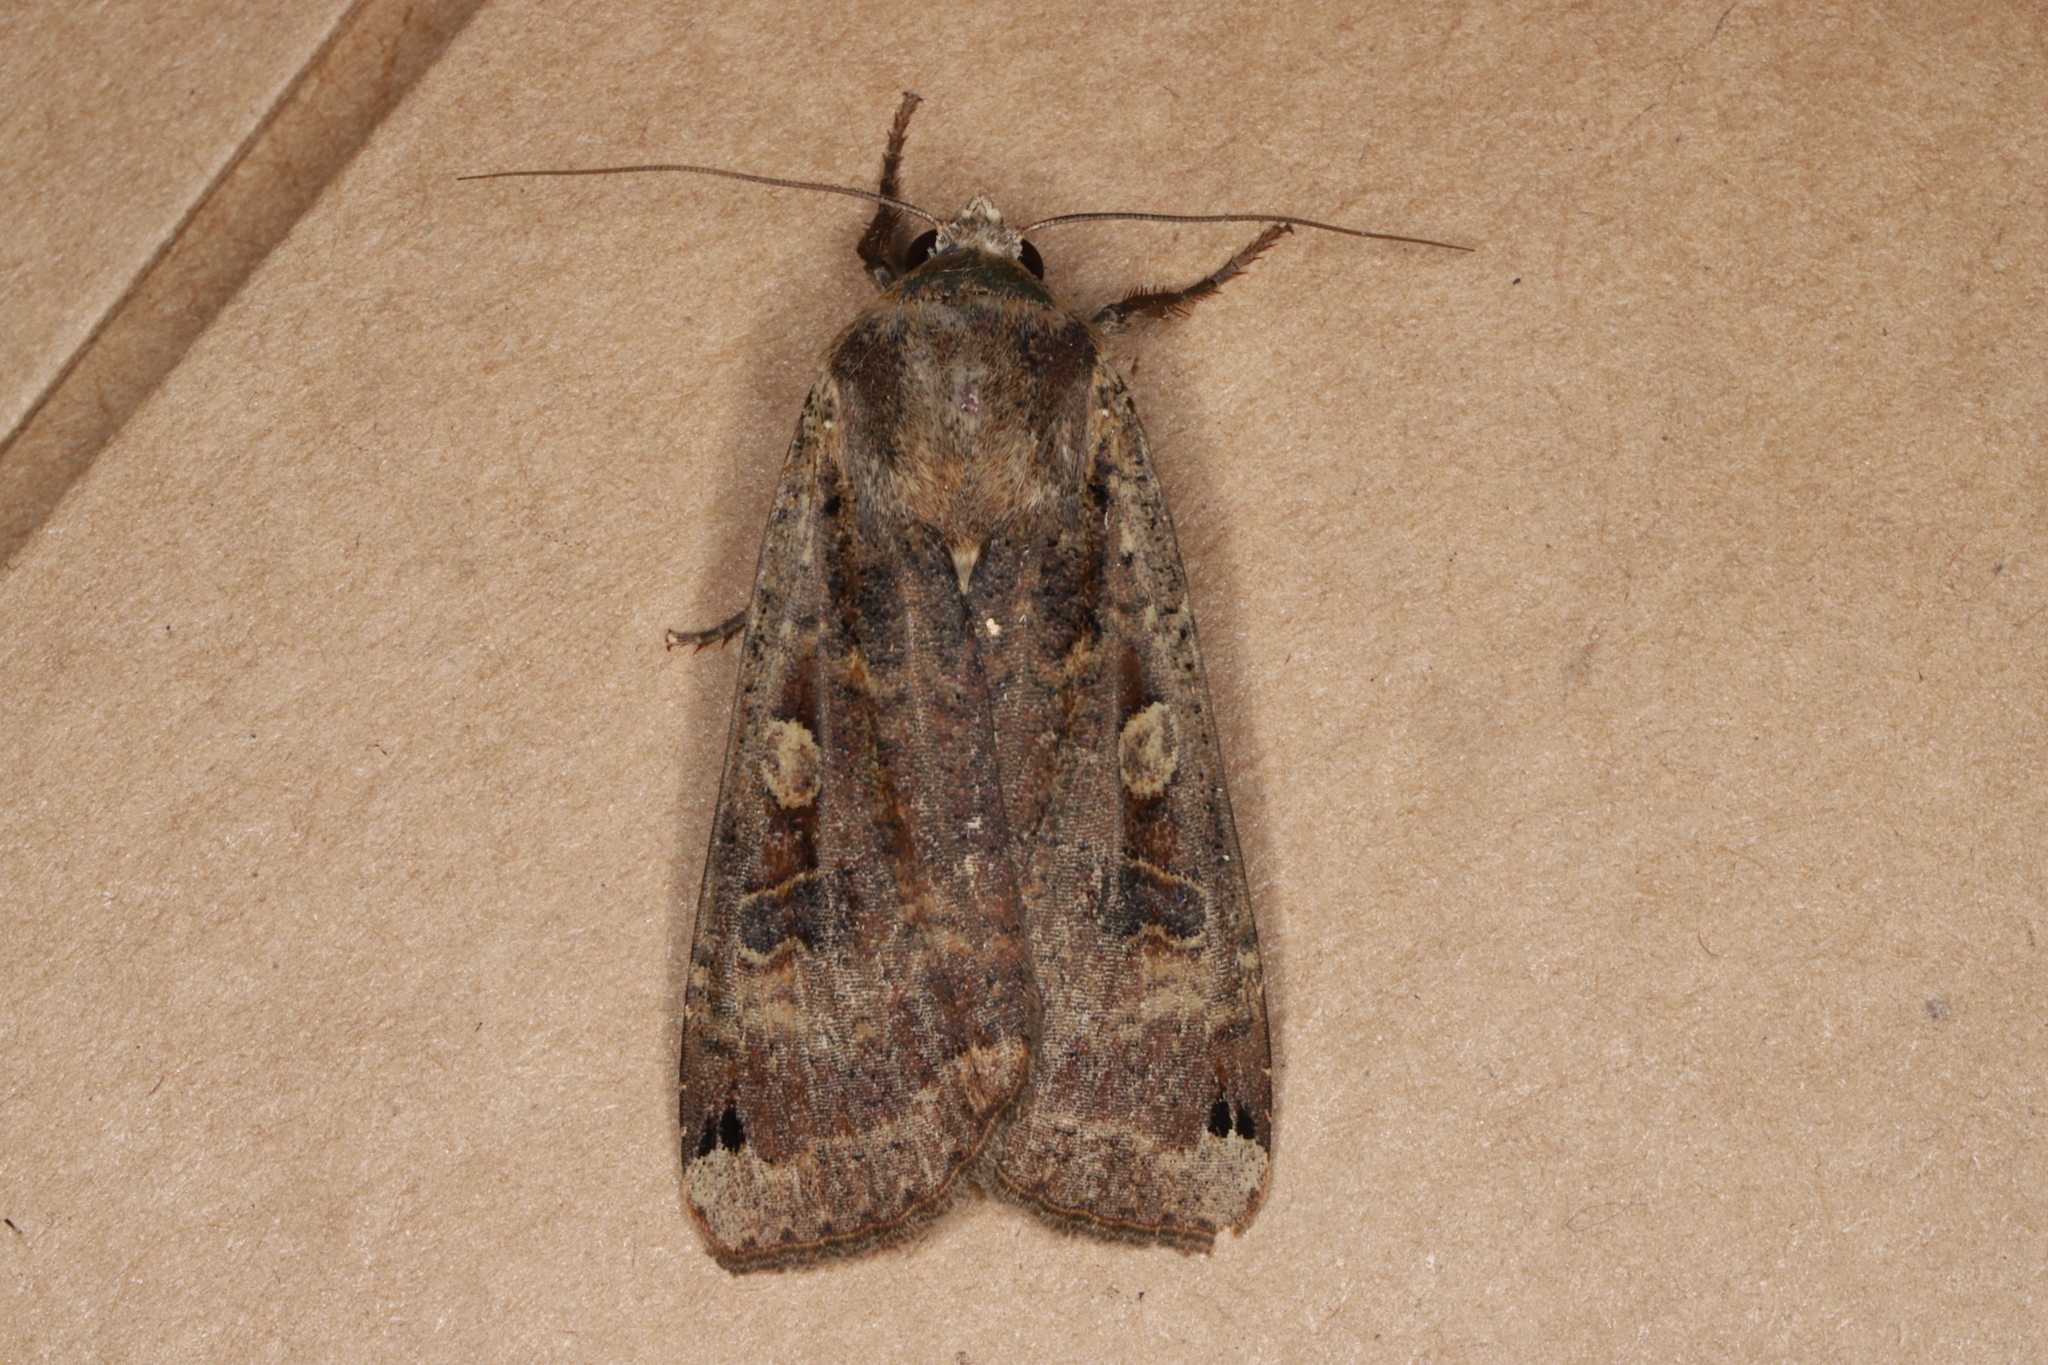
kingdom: Animalia
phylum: Arthropoda
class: Insecta
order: Lepidoptera
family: Noctuidae
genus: Noctua
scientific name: Noctua pronuba
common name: Large yellow underwing
